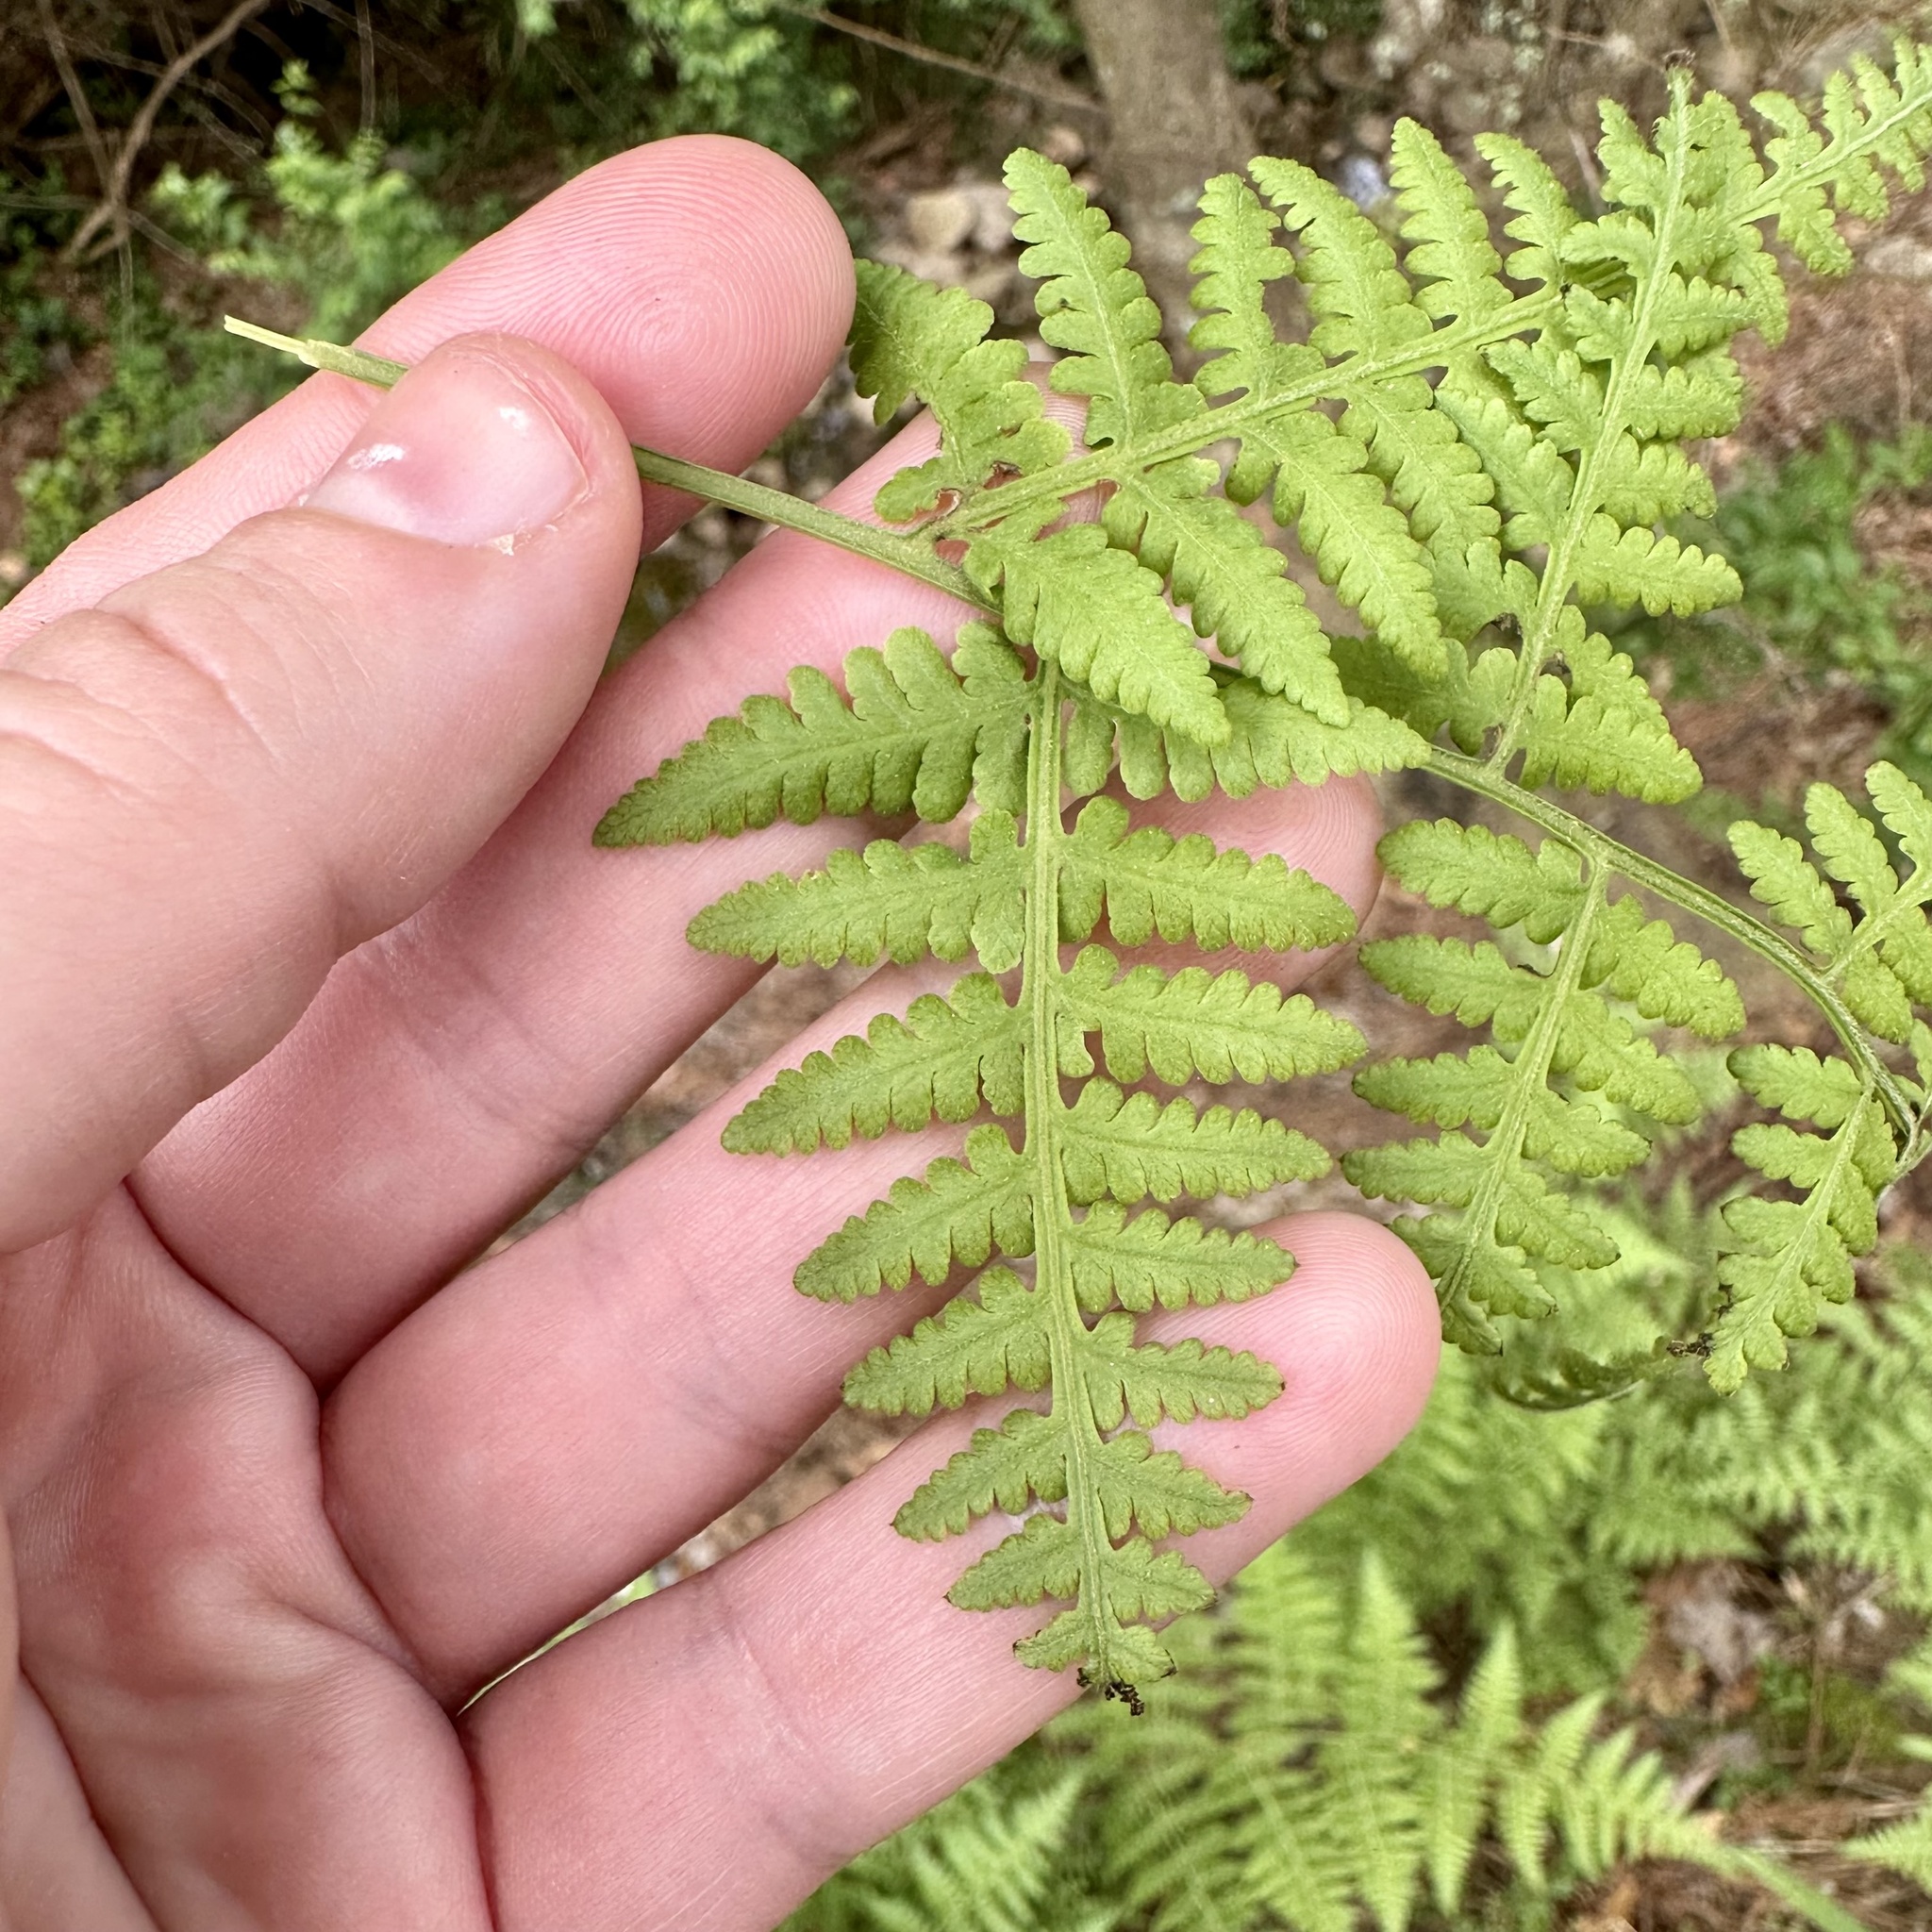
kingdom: Plantae
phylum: Tracheophyta
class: Polypodiopsida
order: Polypodiales
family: Thelypteridaceae
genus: Macrothelypteris
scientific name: Macrothelypteris torresiana
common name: Swordfern
